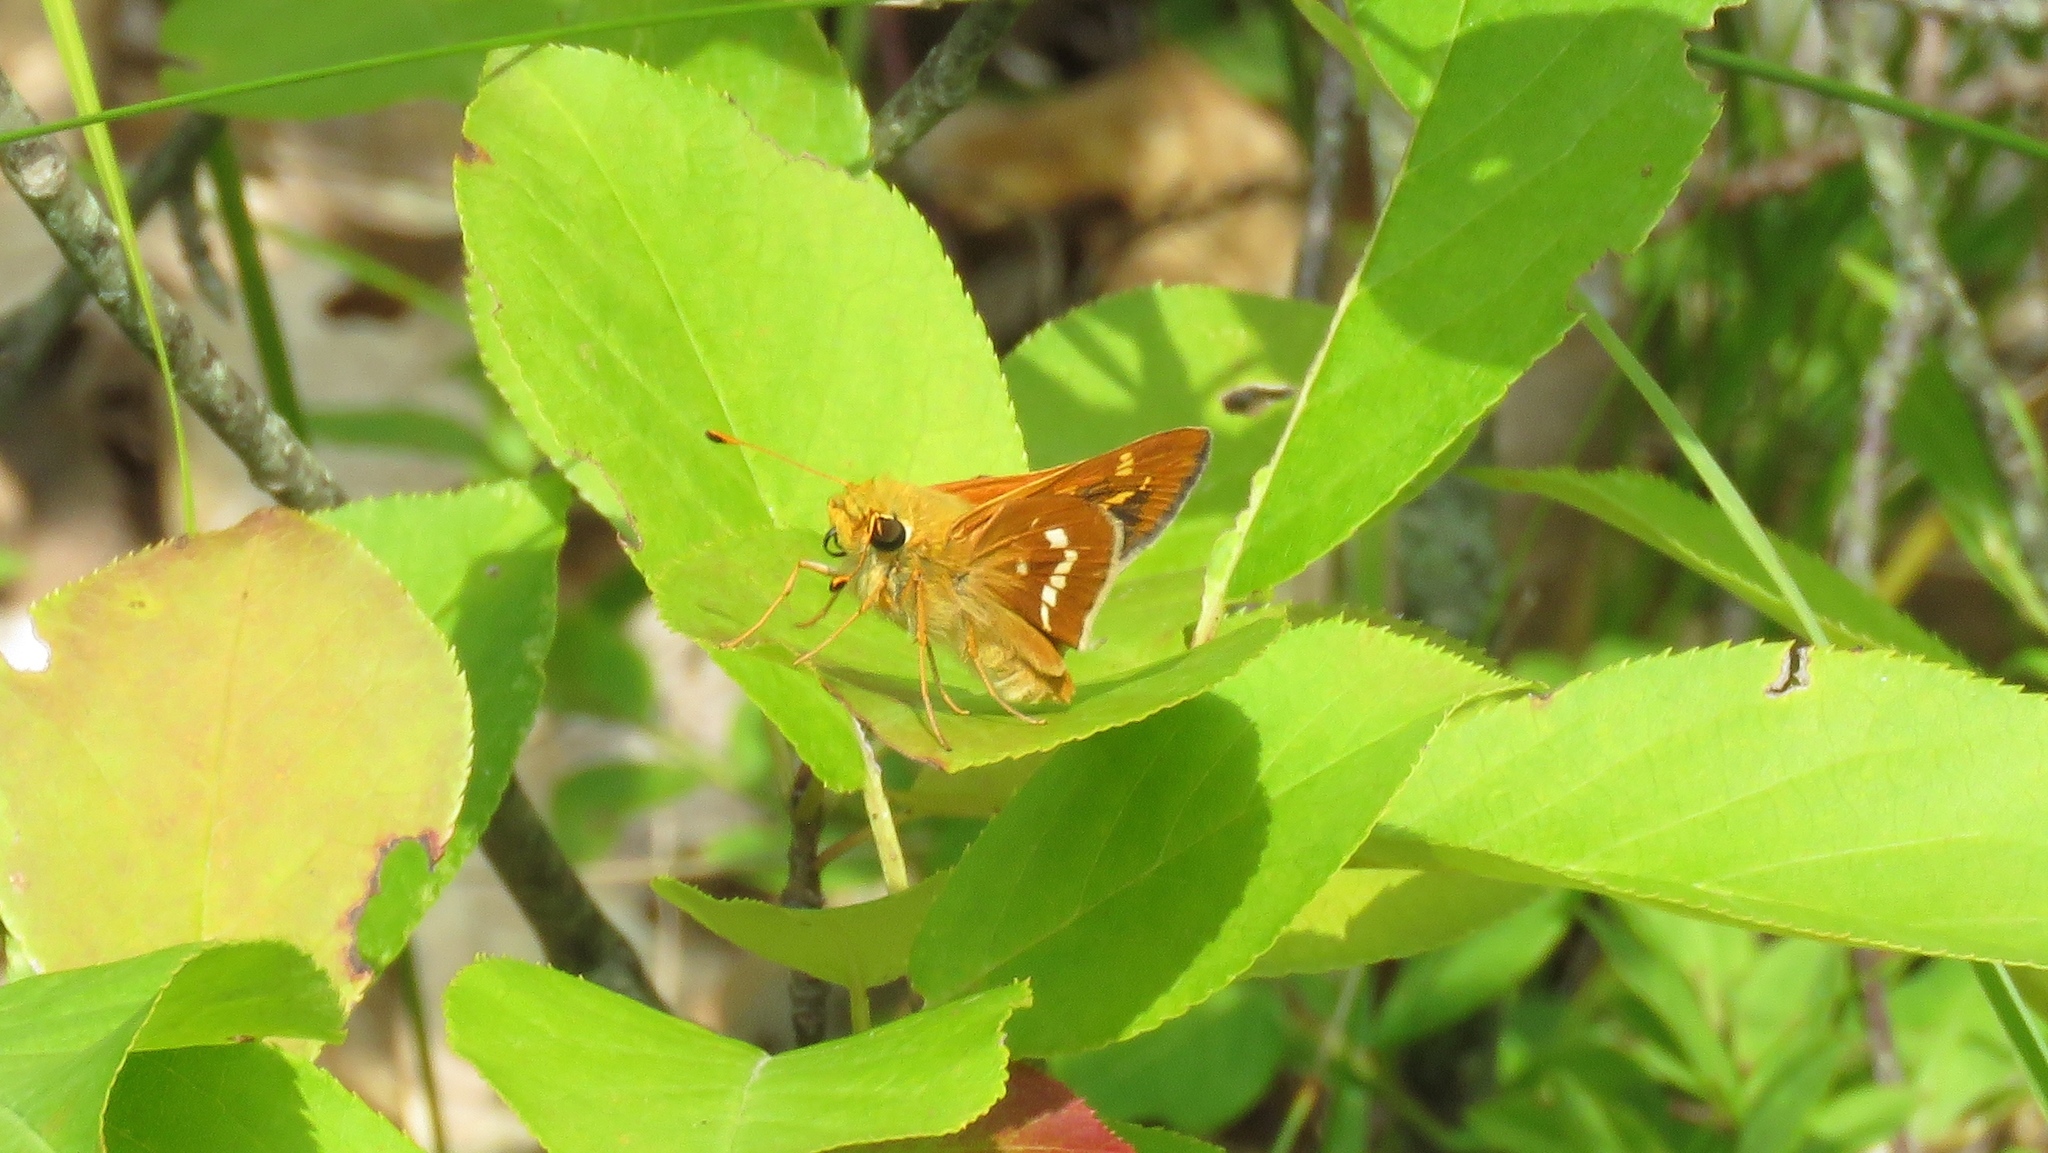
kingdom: Animalia
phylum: Arthropoda
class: Insecta
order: Lepidoptera
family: Hesperiidae
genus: Hesperia
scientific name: Hesperia leonardus
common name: Leonard's skipper
